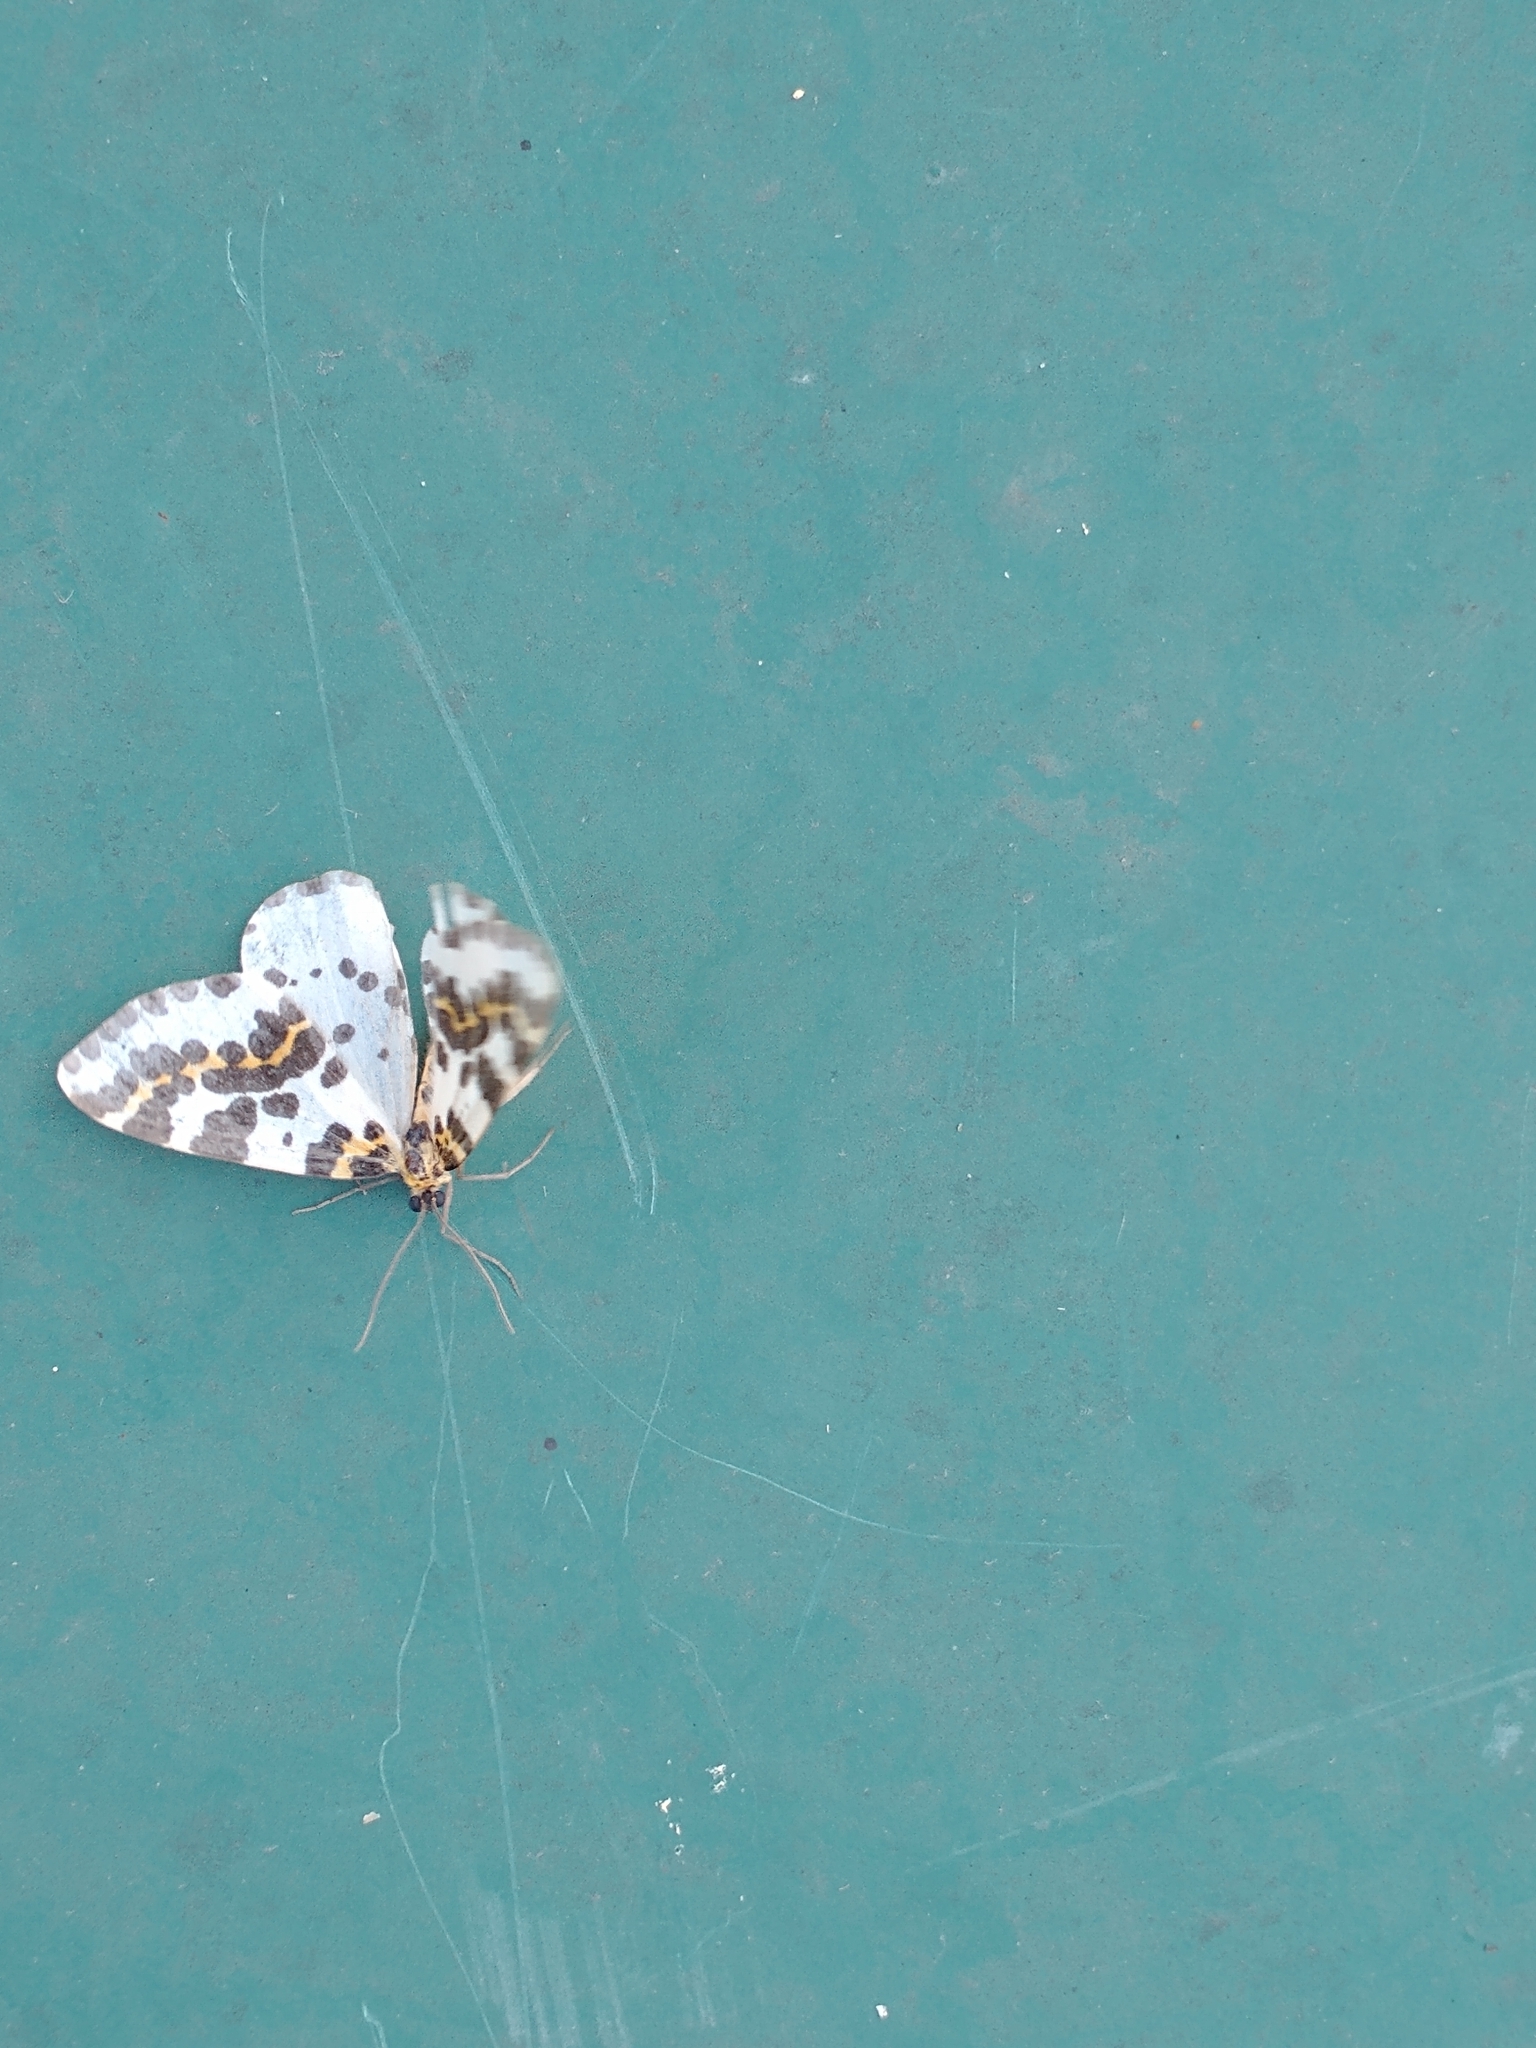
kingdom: Animalia
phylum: Arthropoda
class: Insecta
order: Lepidoptera
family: Geometridae
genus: Abraxas
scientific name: Abraxas grossulariata
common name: Magpie
